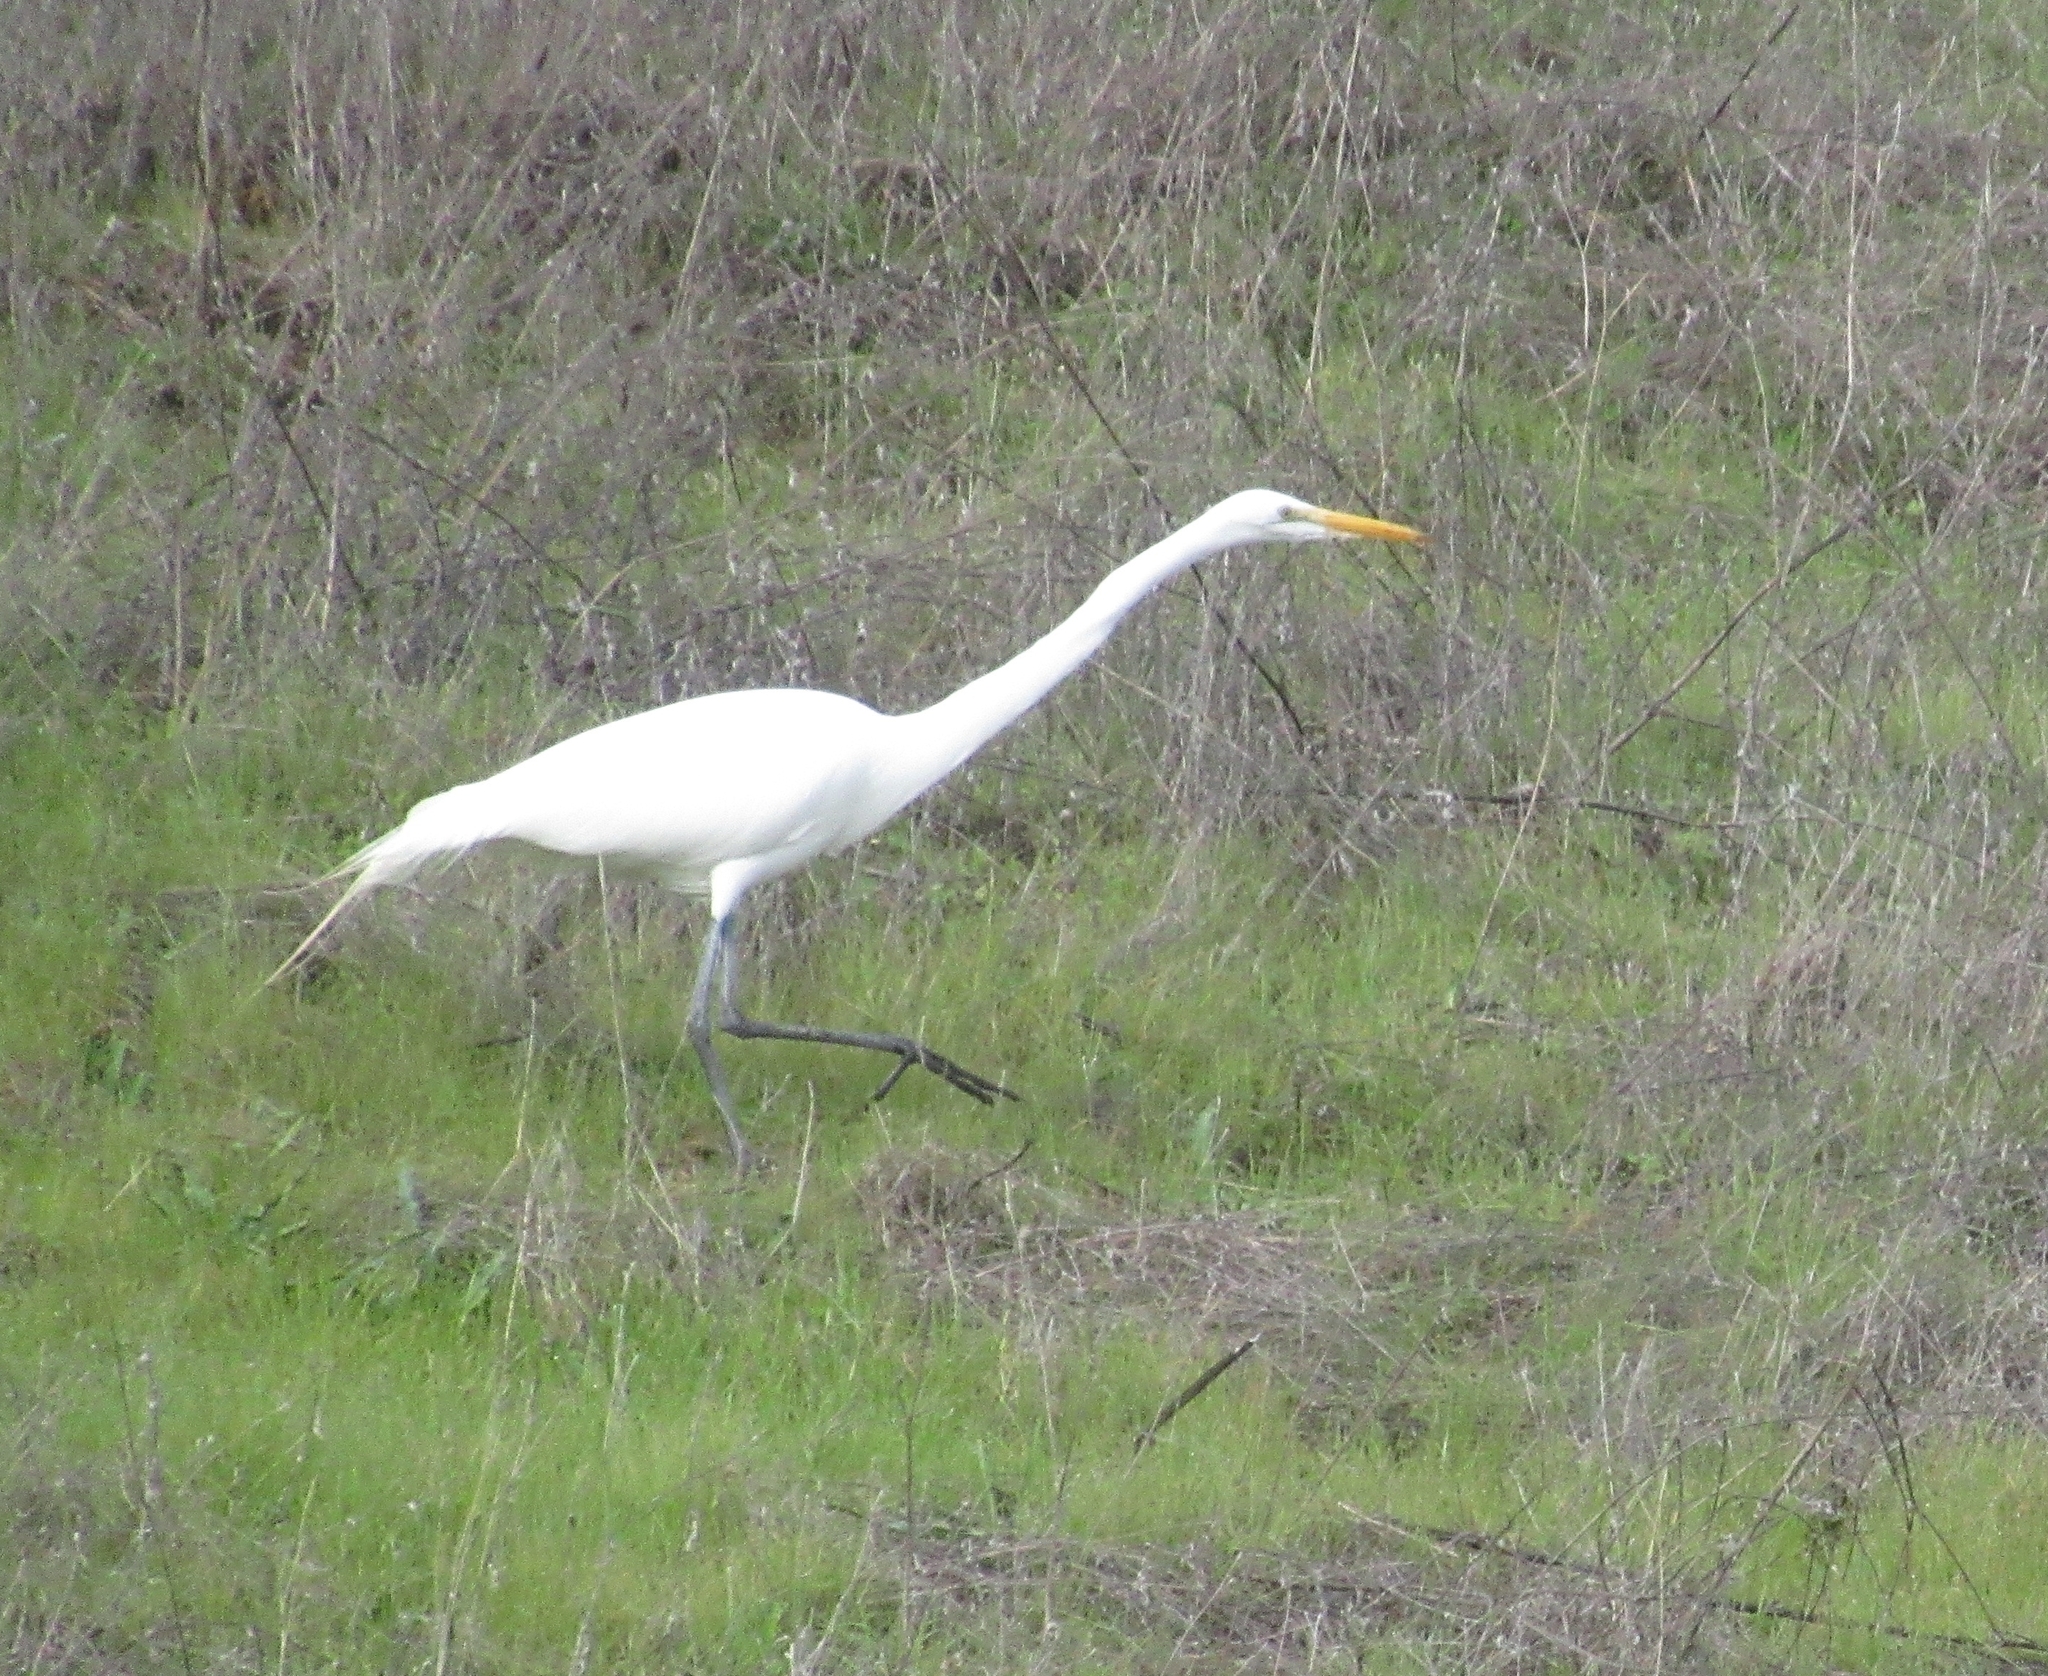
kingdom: Animalia
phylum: Chordata
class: Aves
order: Pelecaniformes
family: Ardeidae
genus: Ardea
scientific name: Ardea alba
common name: Great egret
